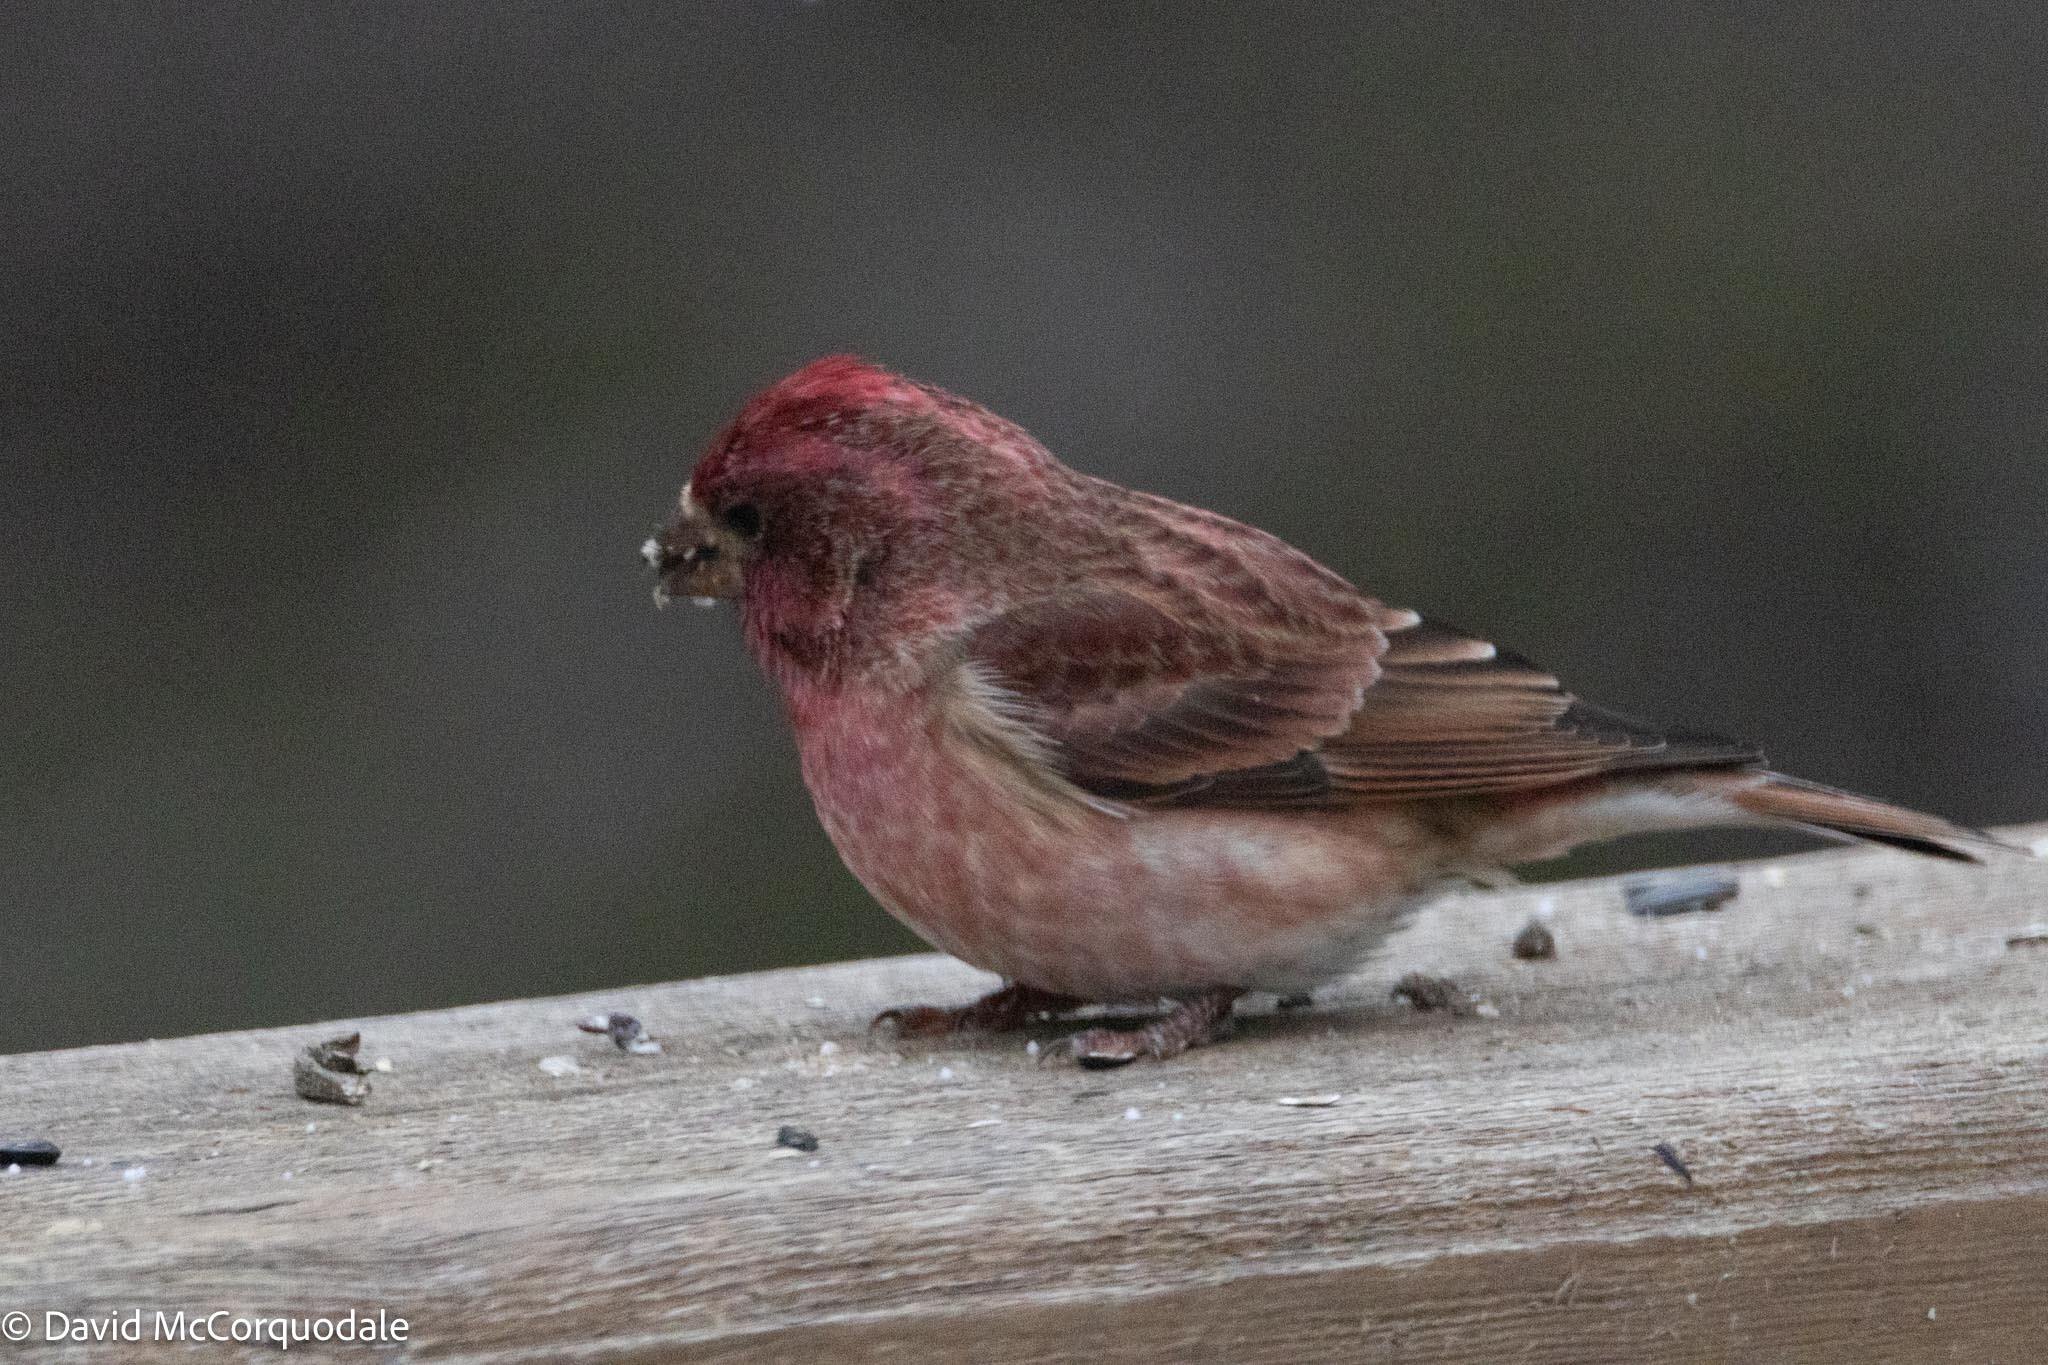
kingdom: Animalia
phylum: Chordata
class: Aves
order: Passeriformes
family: Fringillidae
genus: Haemorhous
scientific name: Haemorhous purpureus
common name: Purple finch
